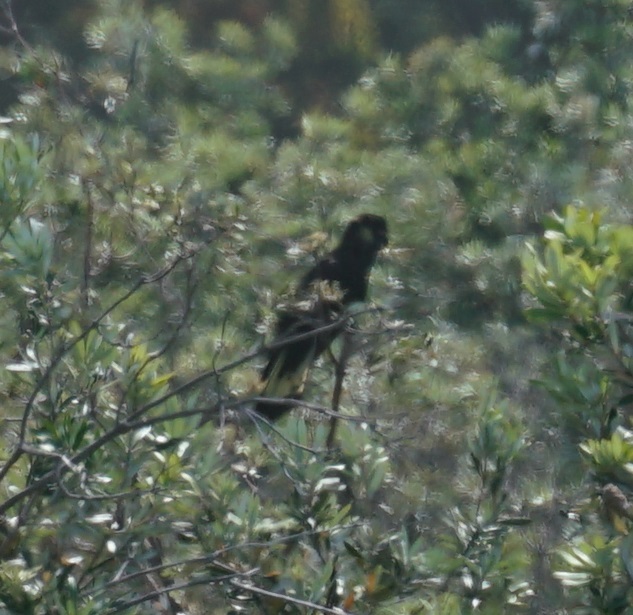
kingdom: Animalia
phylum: Chordata
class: Aves
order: Psittaciformes
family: Cacatuidae
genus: Zanda
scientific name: Zanda funerea
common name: Yellow-tailed black-cockatoo
